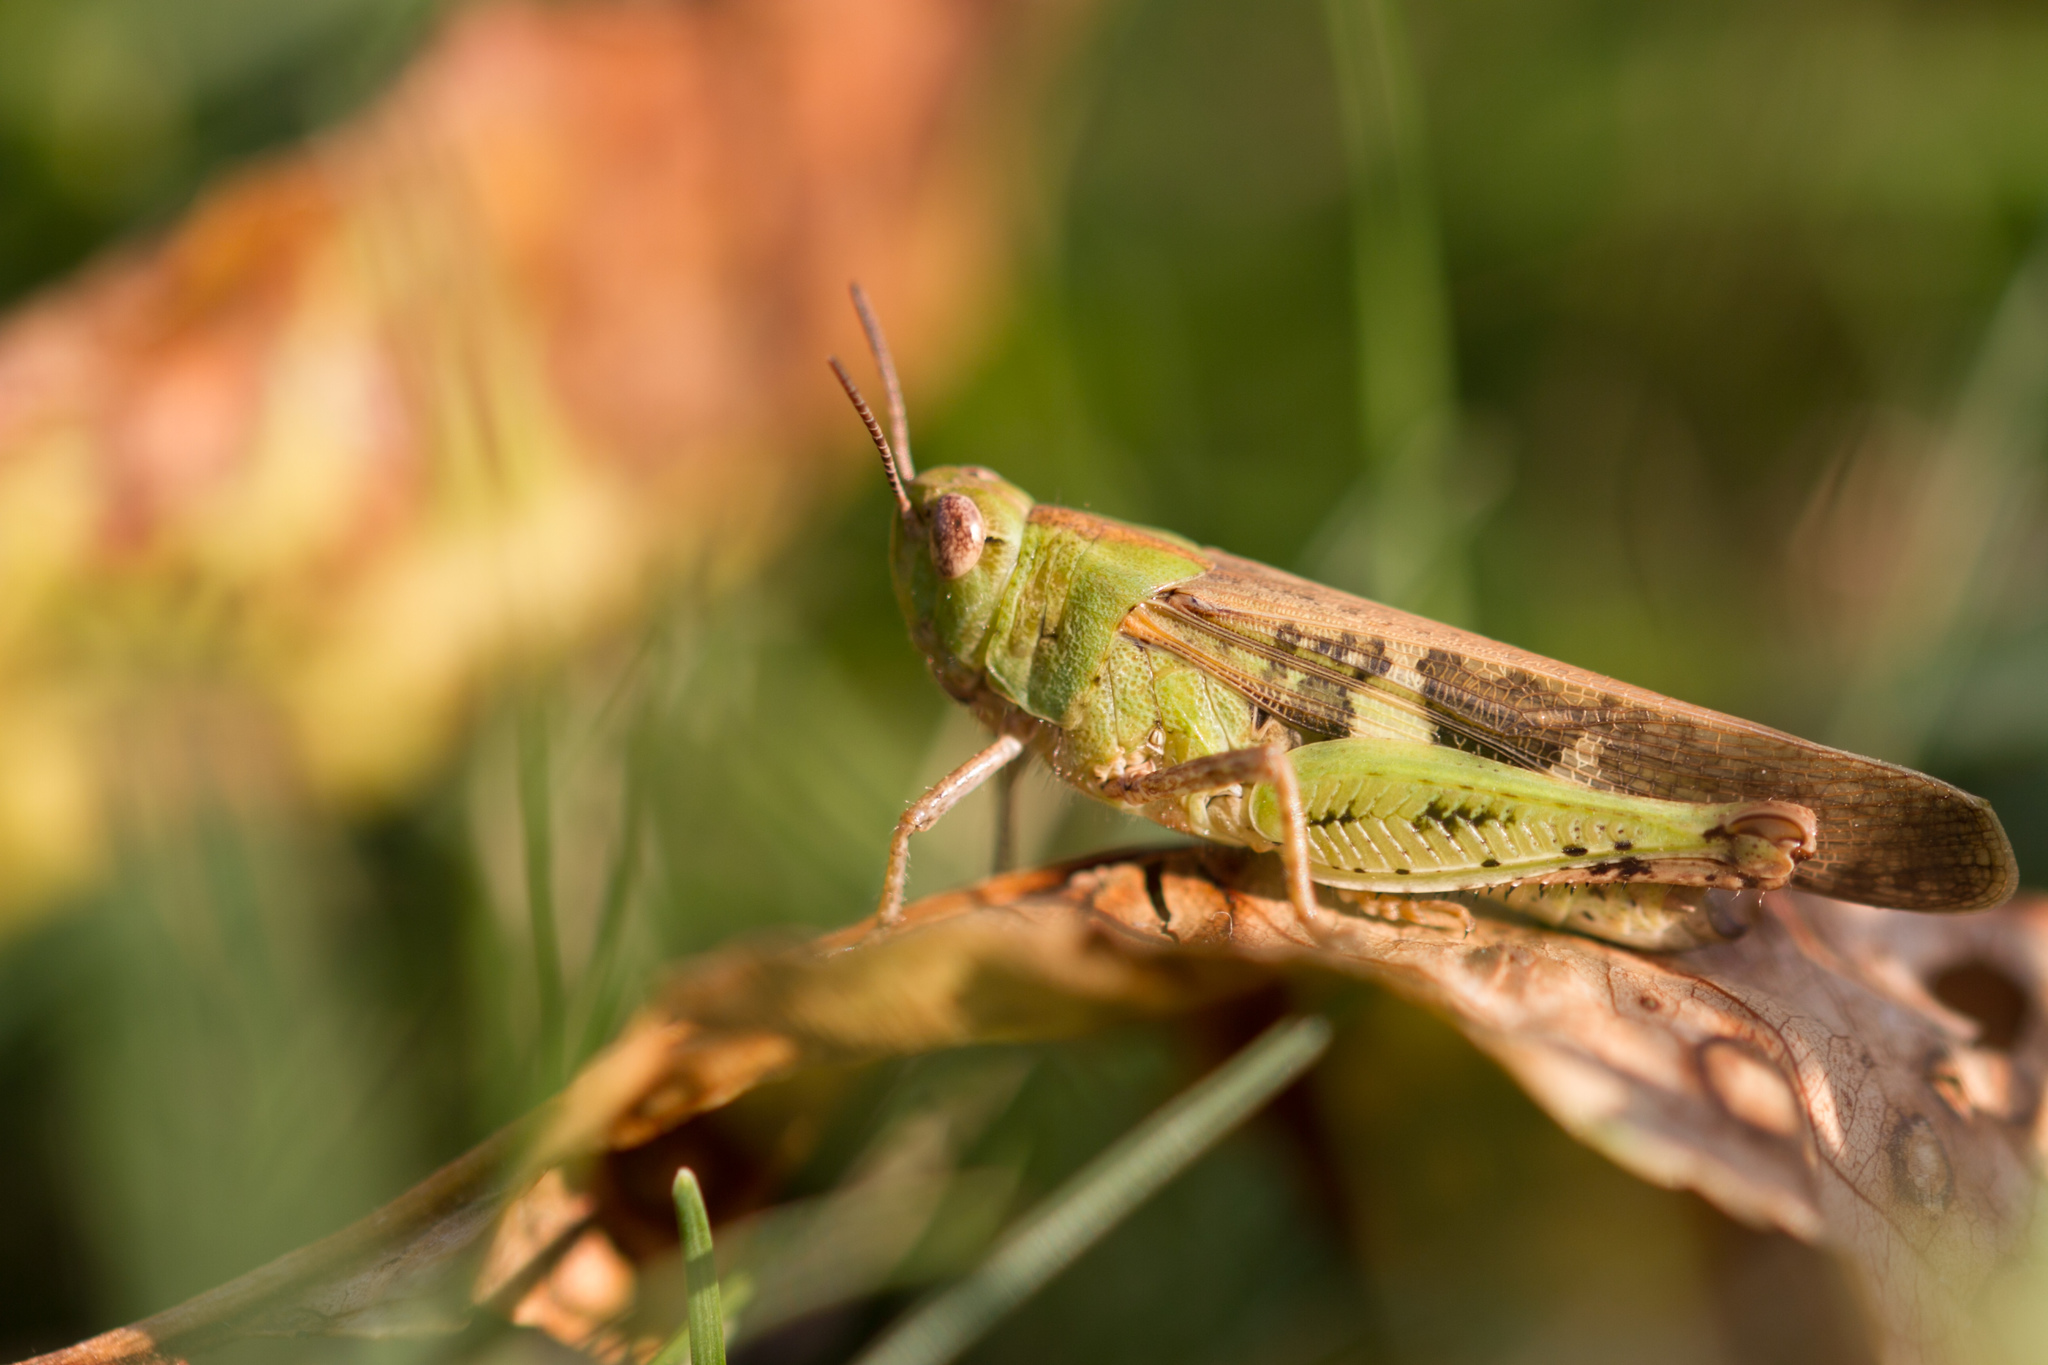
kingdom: Animalia
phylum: Arthropoda
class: Insecta
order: Orthoptera
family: Acrididae
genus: Aiolopus
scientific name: Aiolopus strepens
